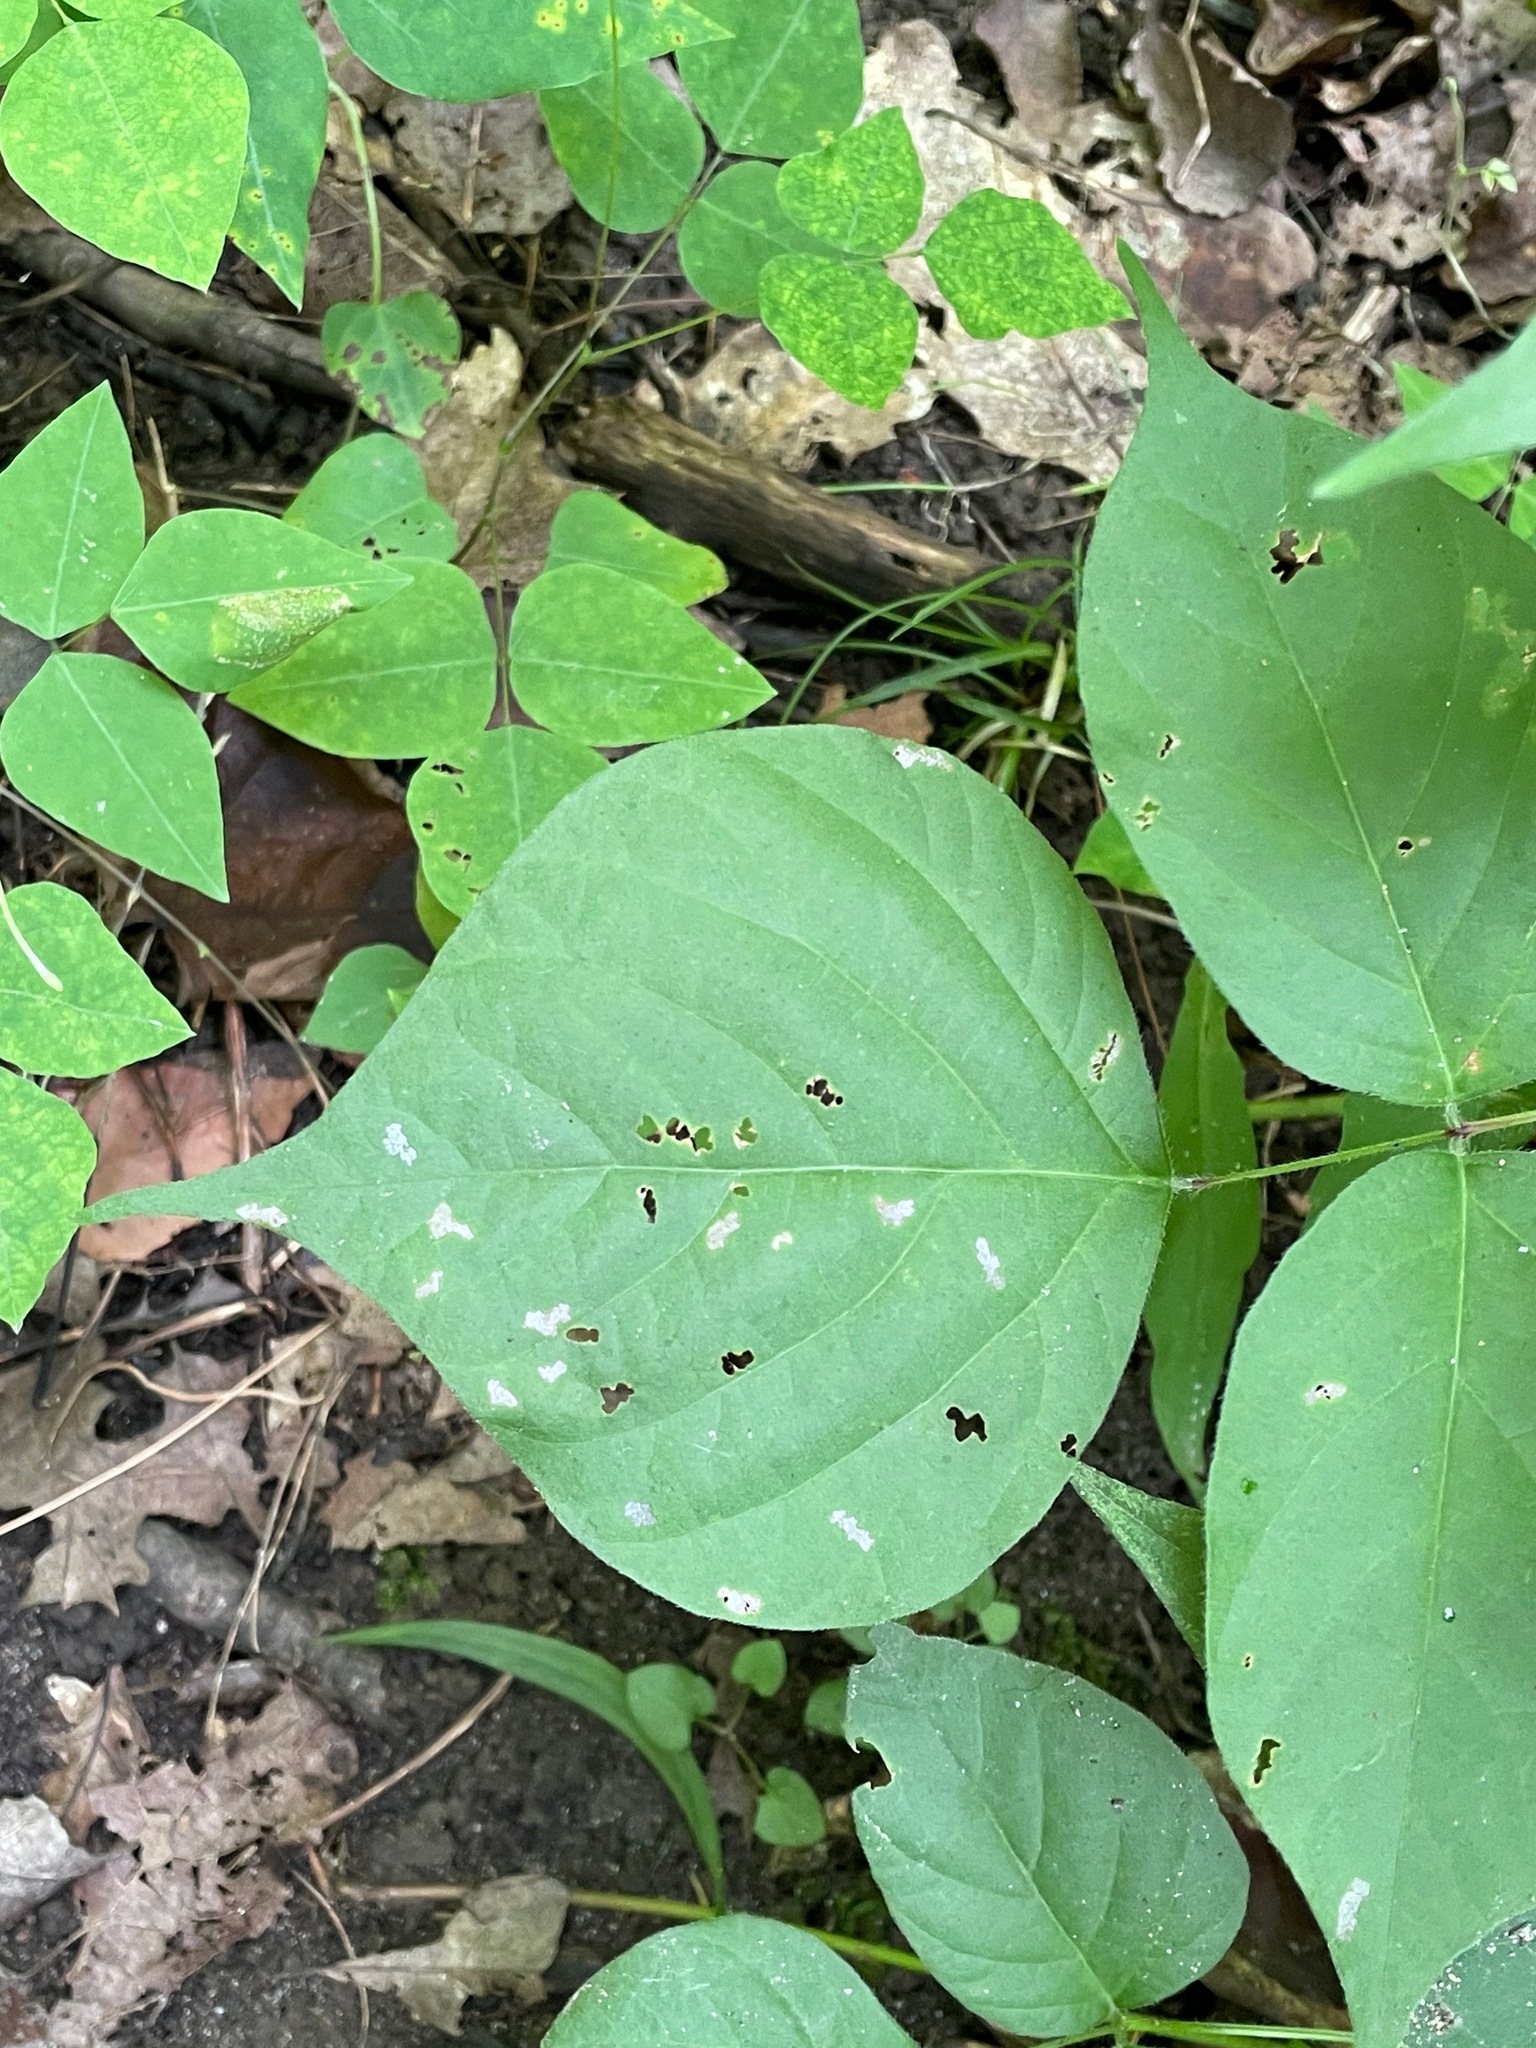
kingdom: Plantae
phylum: Tracheophyta
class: Magnoliopsida
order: Fabales
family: Fabaceae
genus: Hylodesmum
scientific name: Hylodesmum glutinosum
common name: Clustered-leaved tick-trefoil
